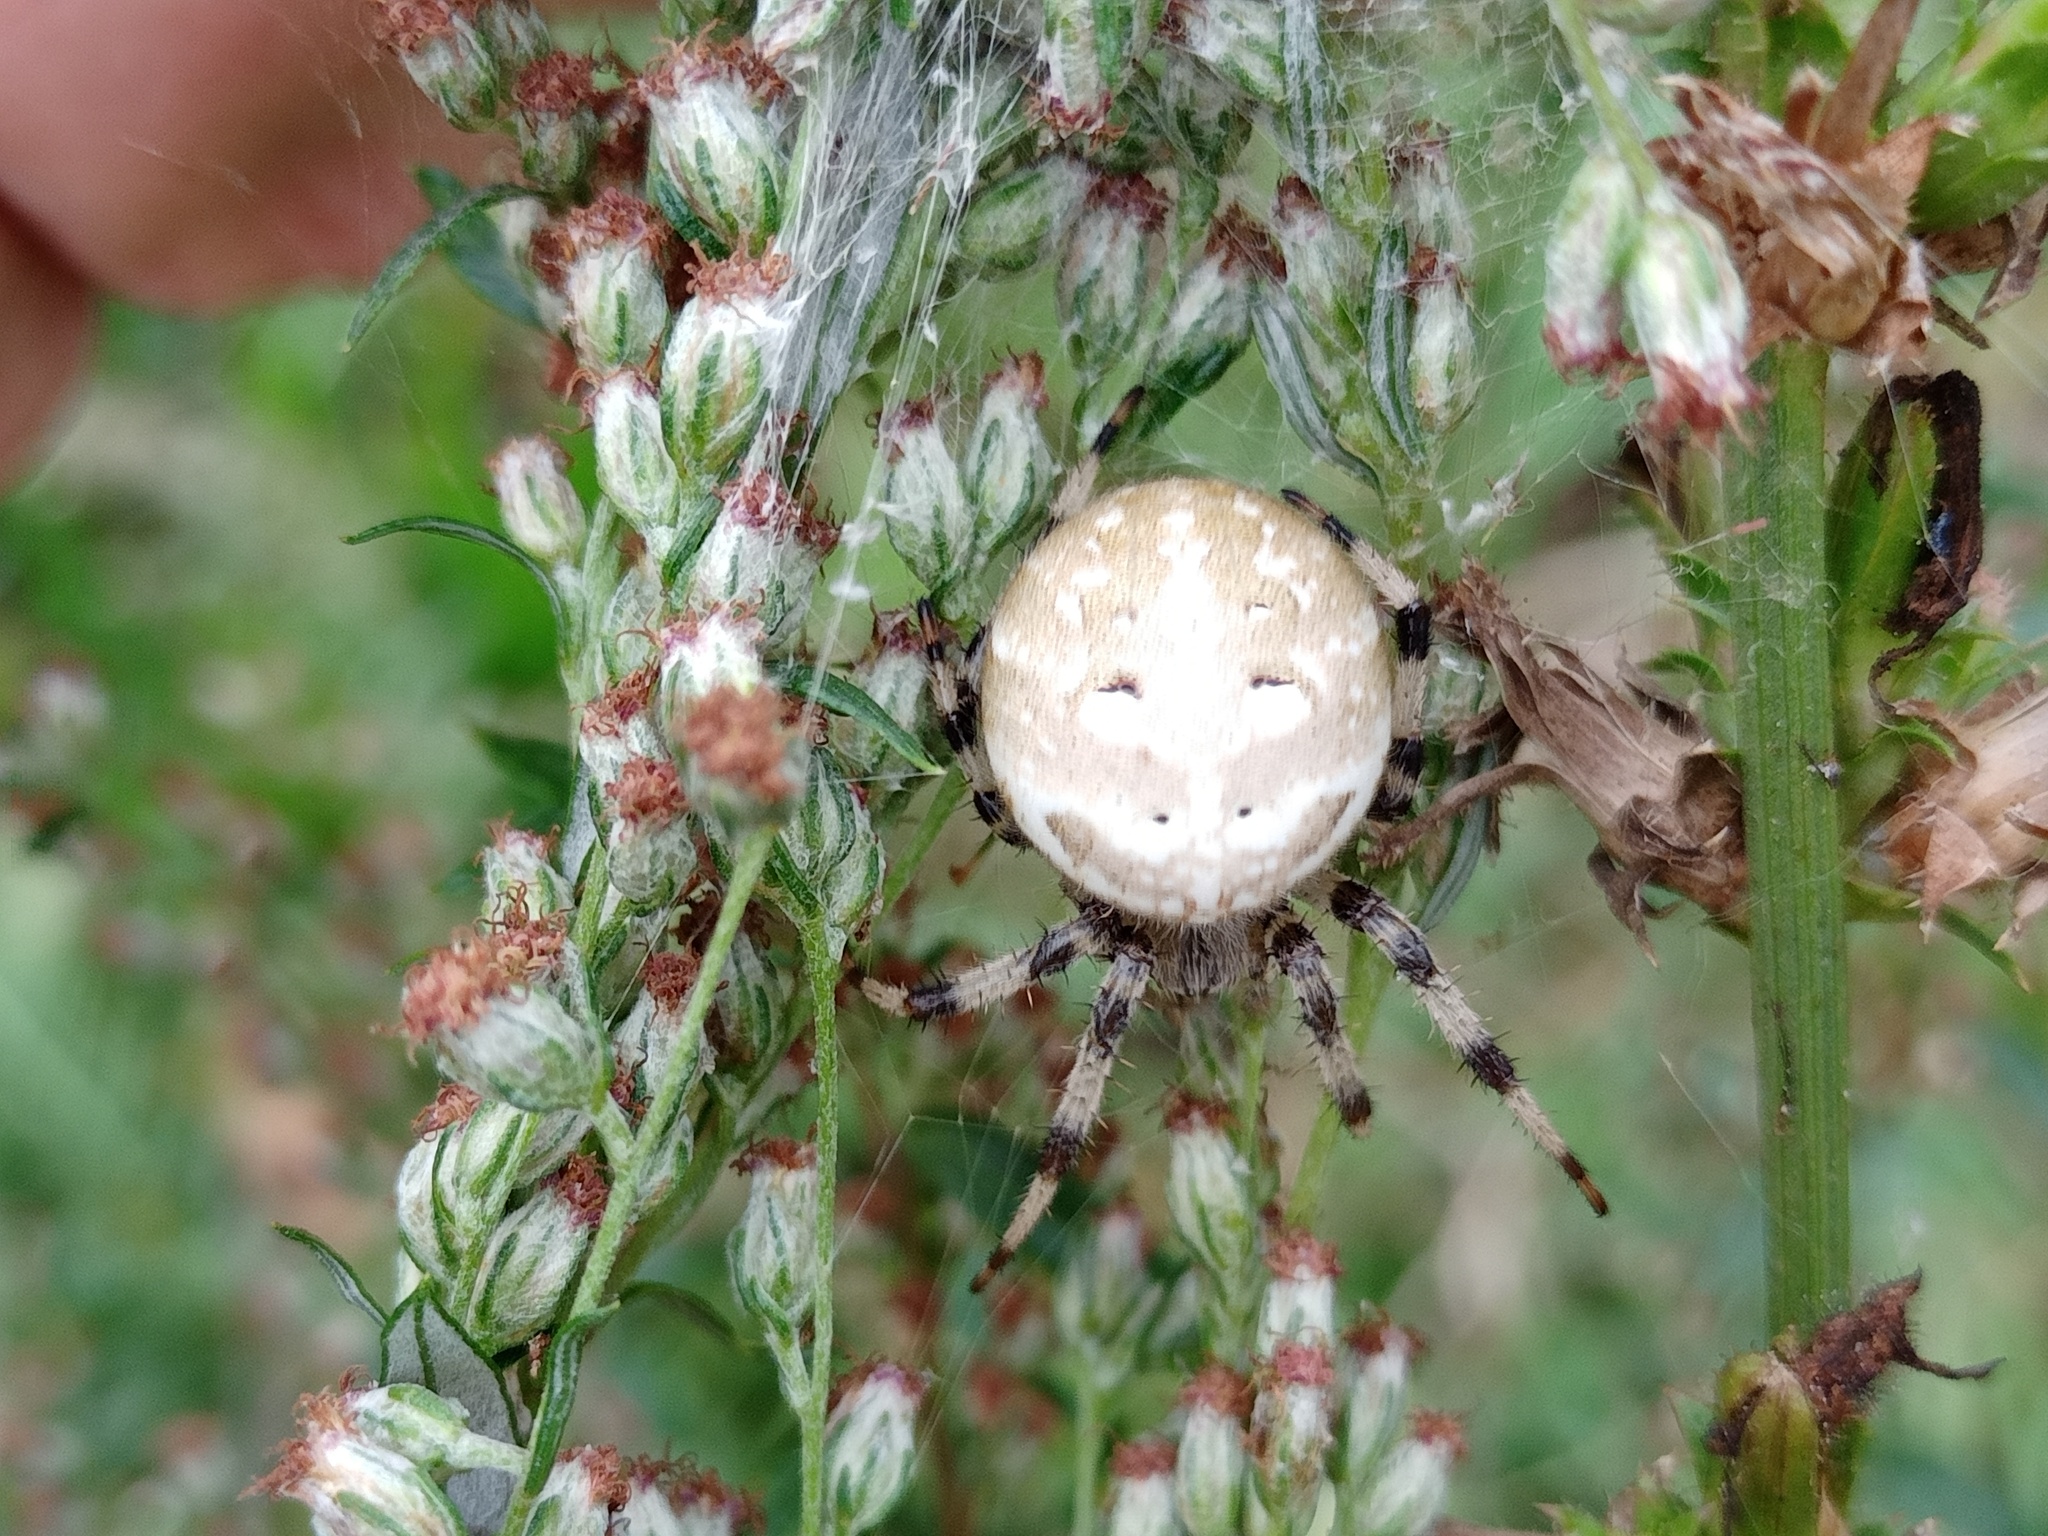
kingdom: Animalia
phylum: Arthropoda
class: Arachnida
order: Araneae
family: Araneidae
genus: Araneus
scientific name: Araneus quadratus
